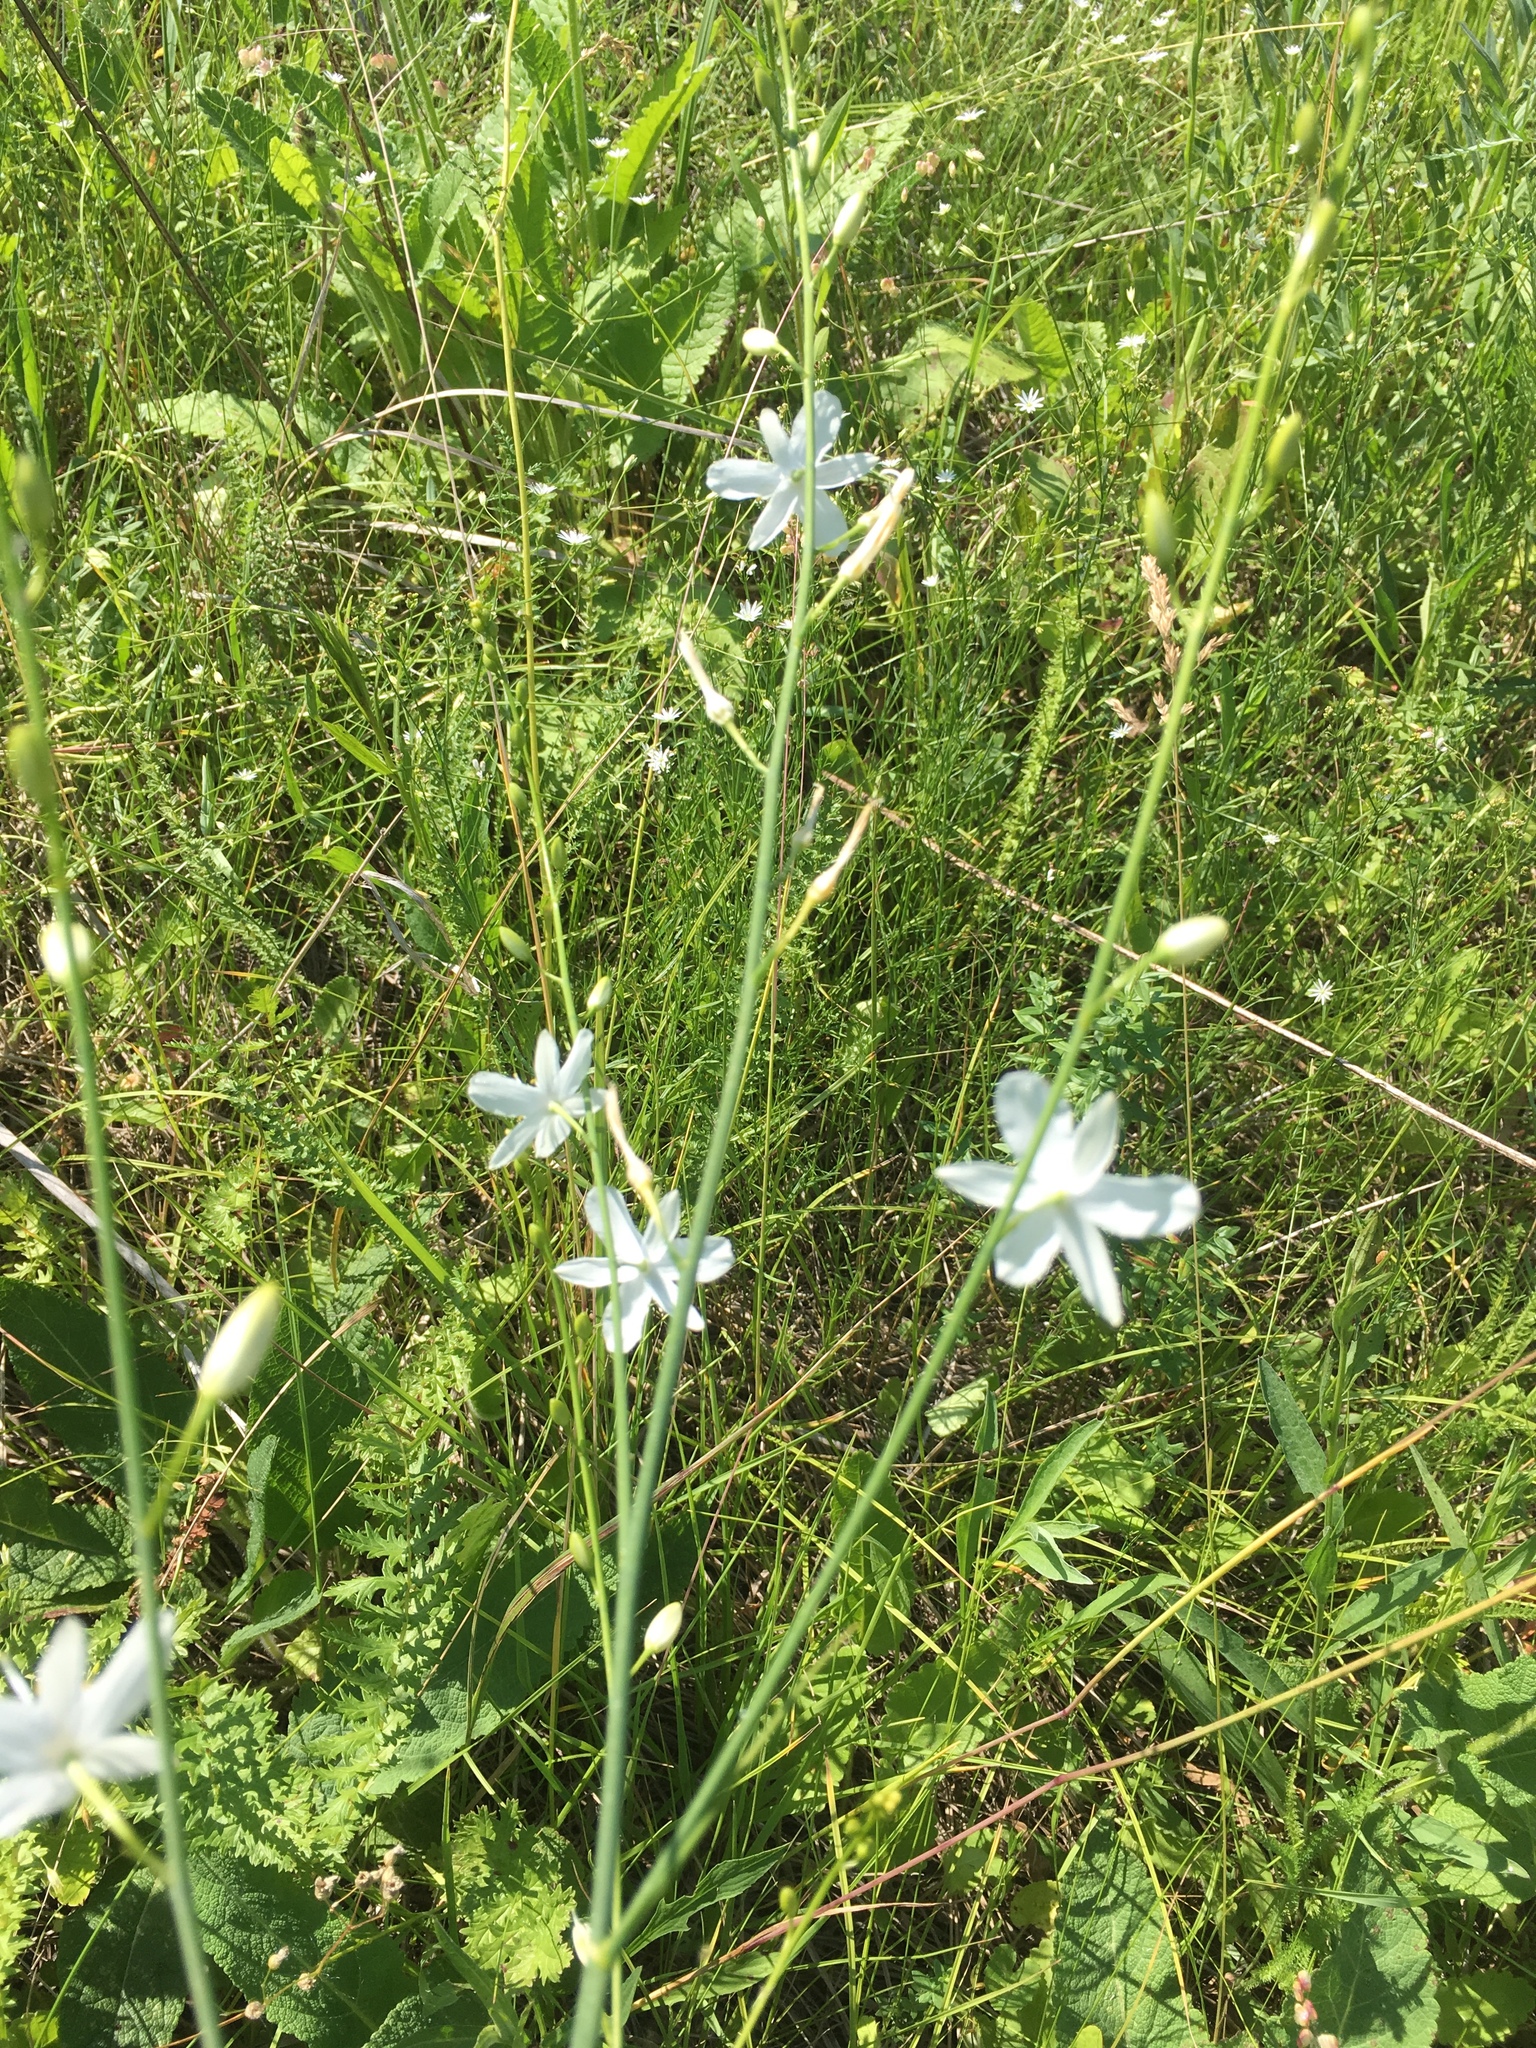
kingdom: Plantae
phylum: Tracheophyta
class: Liliopsida
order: Asparagales
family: Asparagaceae
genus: Anthericum
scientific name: Anthericum ramosum
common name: Branched st. bernard's-lily
